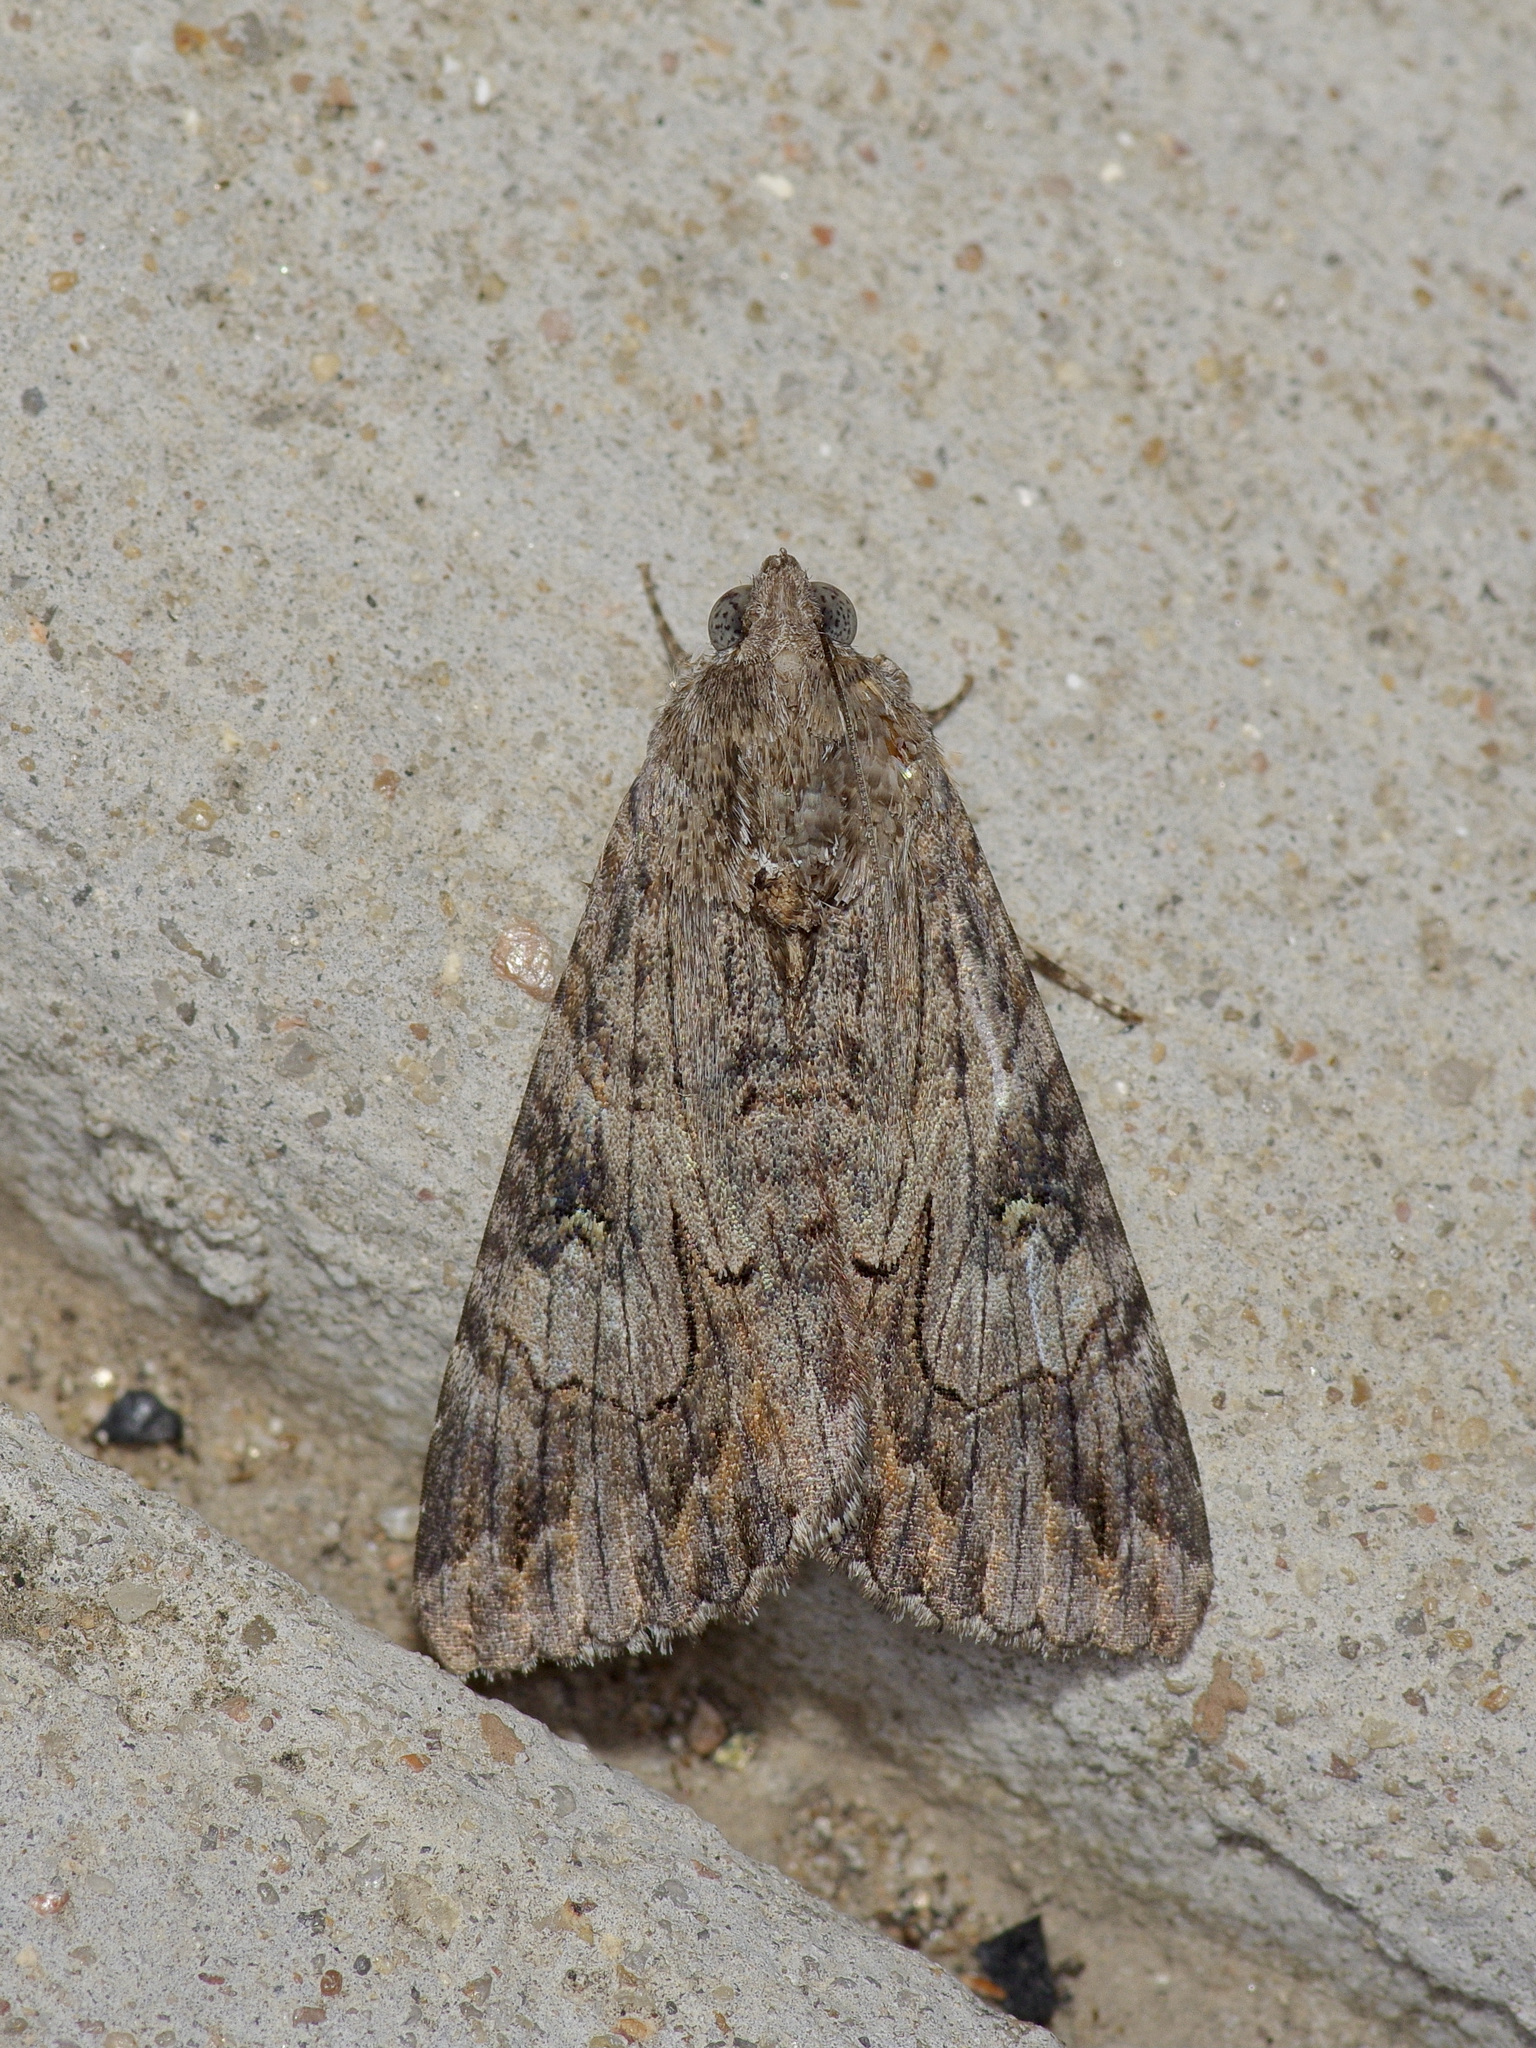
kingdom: Animalia
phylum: Arthropoda
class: Insecta
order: Lepidoptera
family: Erebidae
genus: Melipotis
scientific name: Melipotis jucunda
